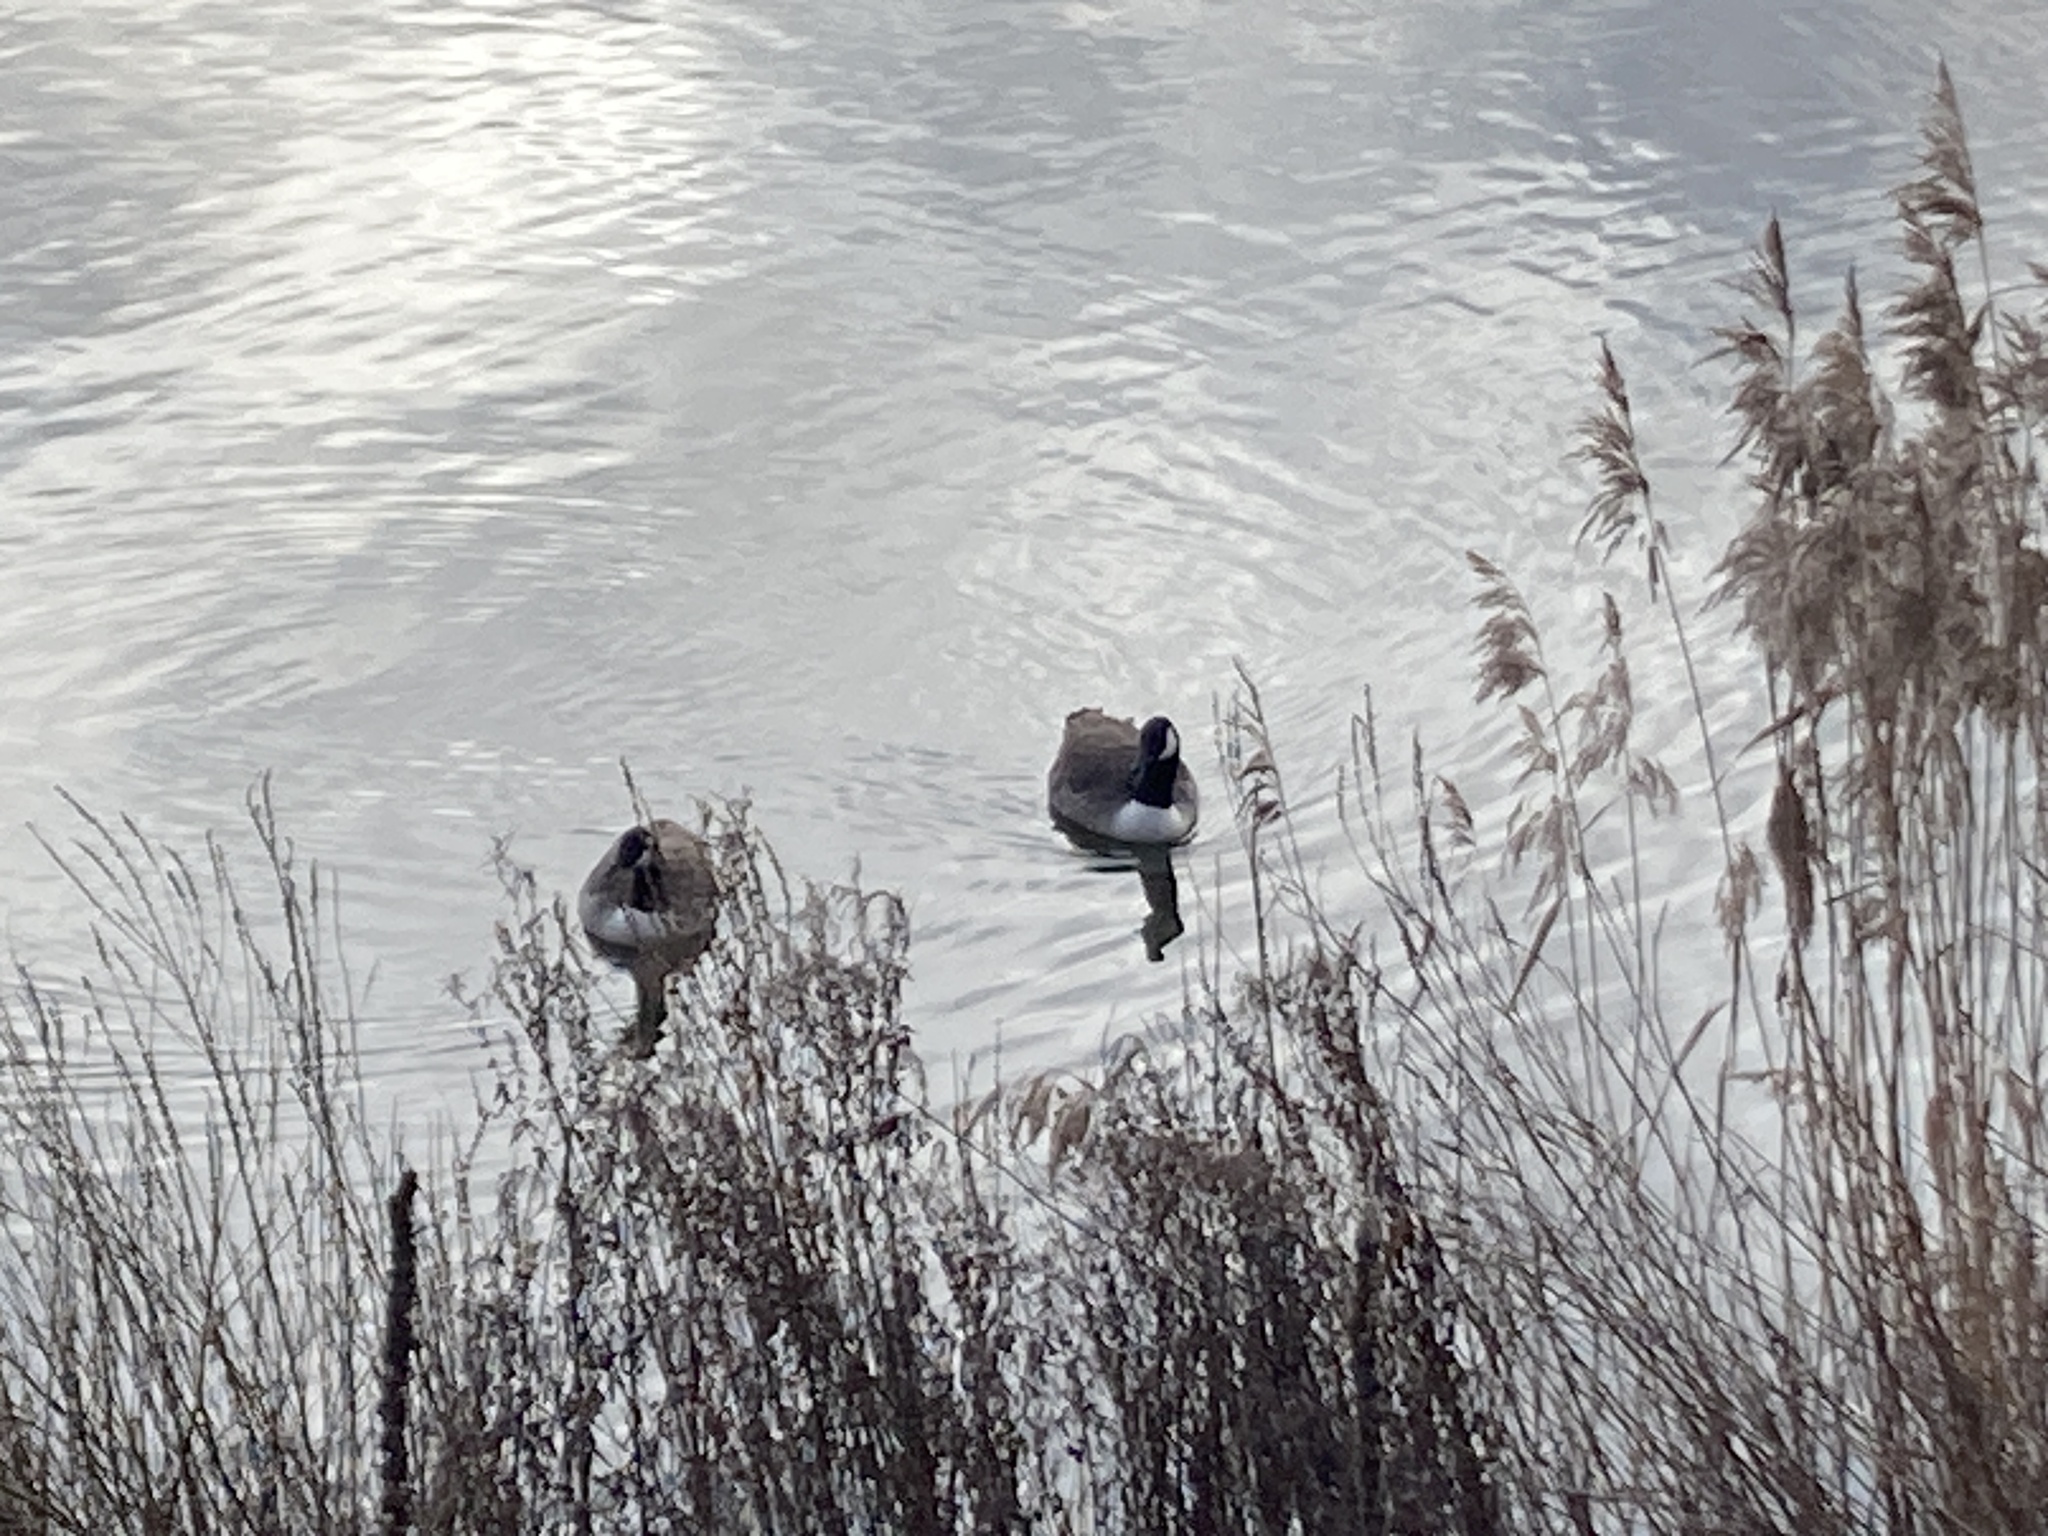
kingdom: Animalia
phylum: Chordata
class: Aves
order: Anseriformes
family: Anatidae
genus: Branta
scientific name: Branta canadensis
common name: Canada goose
